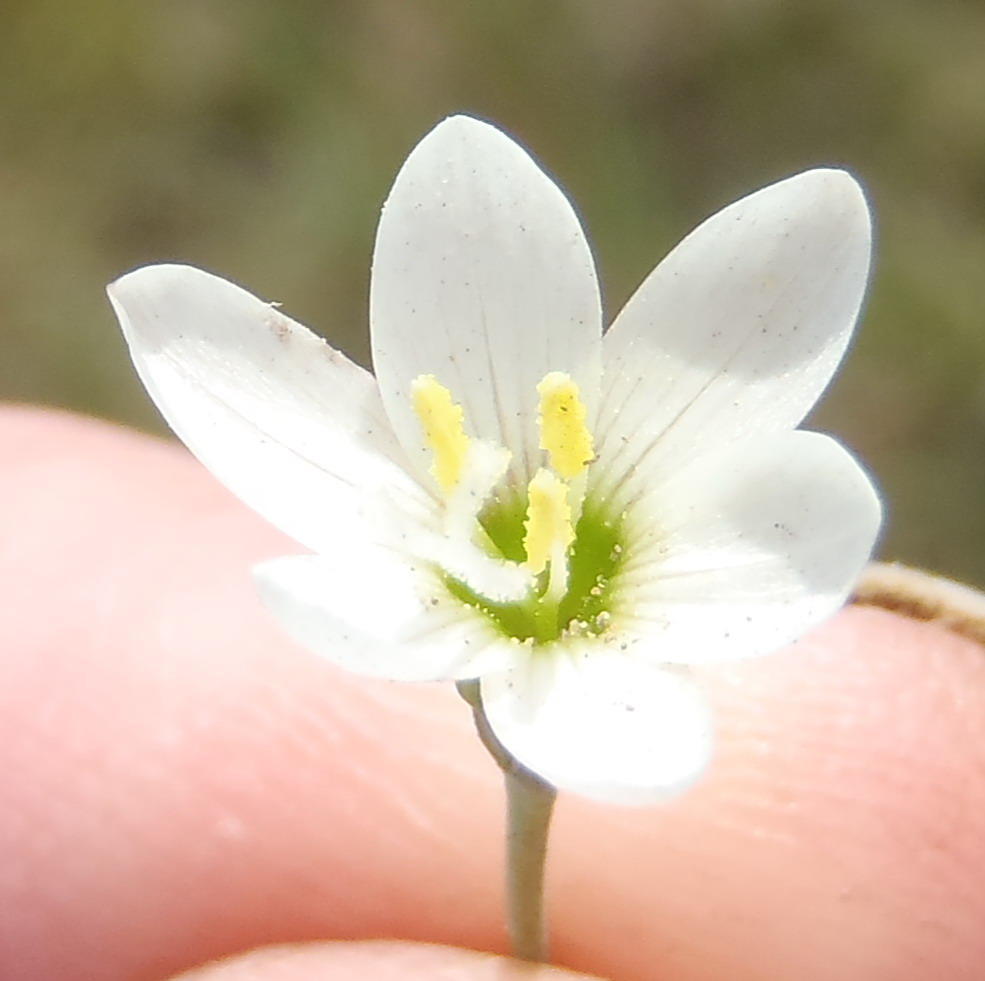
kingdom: Plantae
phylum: Tracheophyta
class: Liliopsida
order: Asparagales
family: Iridaceae
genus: Geissorhiza
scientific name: Geissorhiza inconspicua
